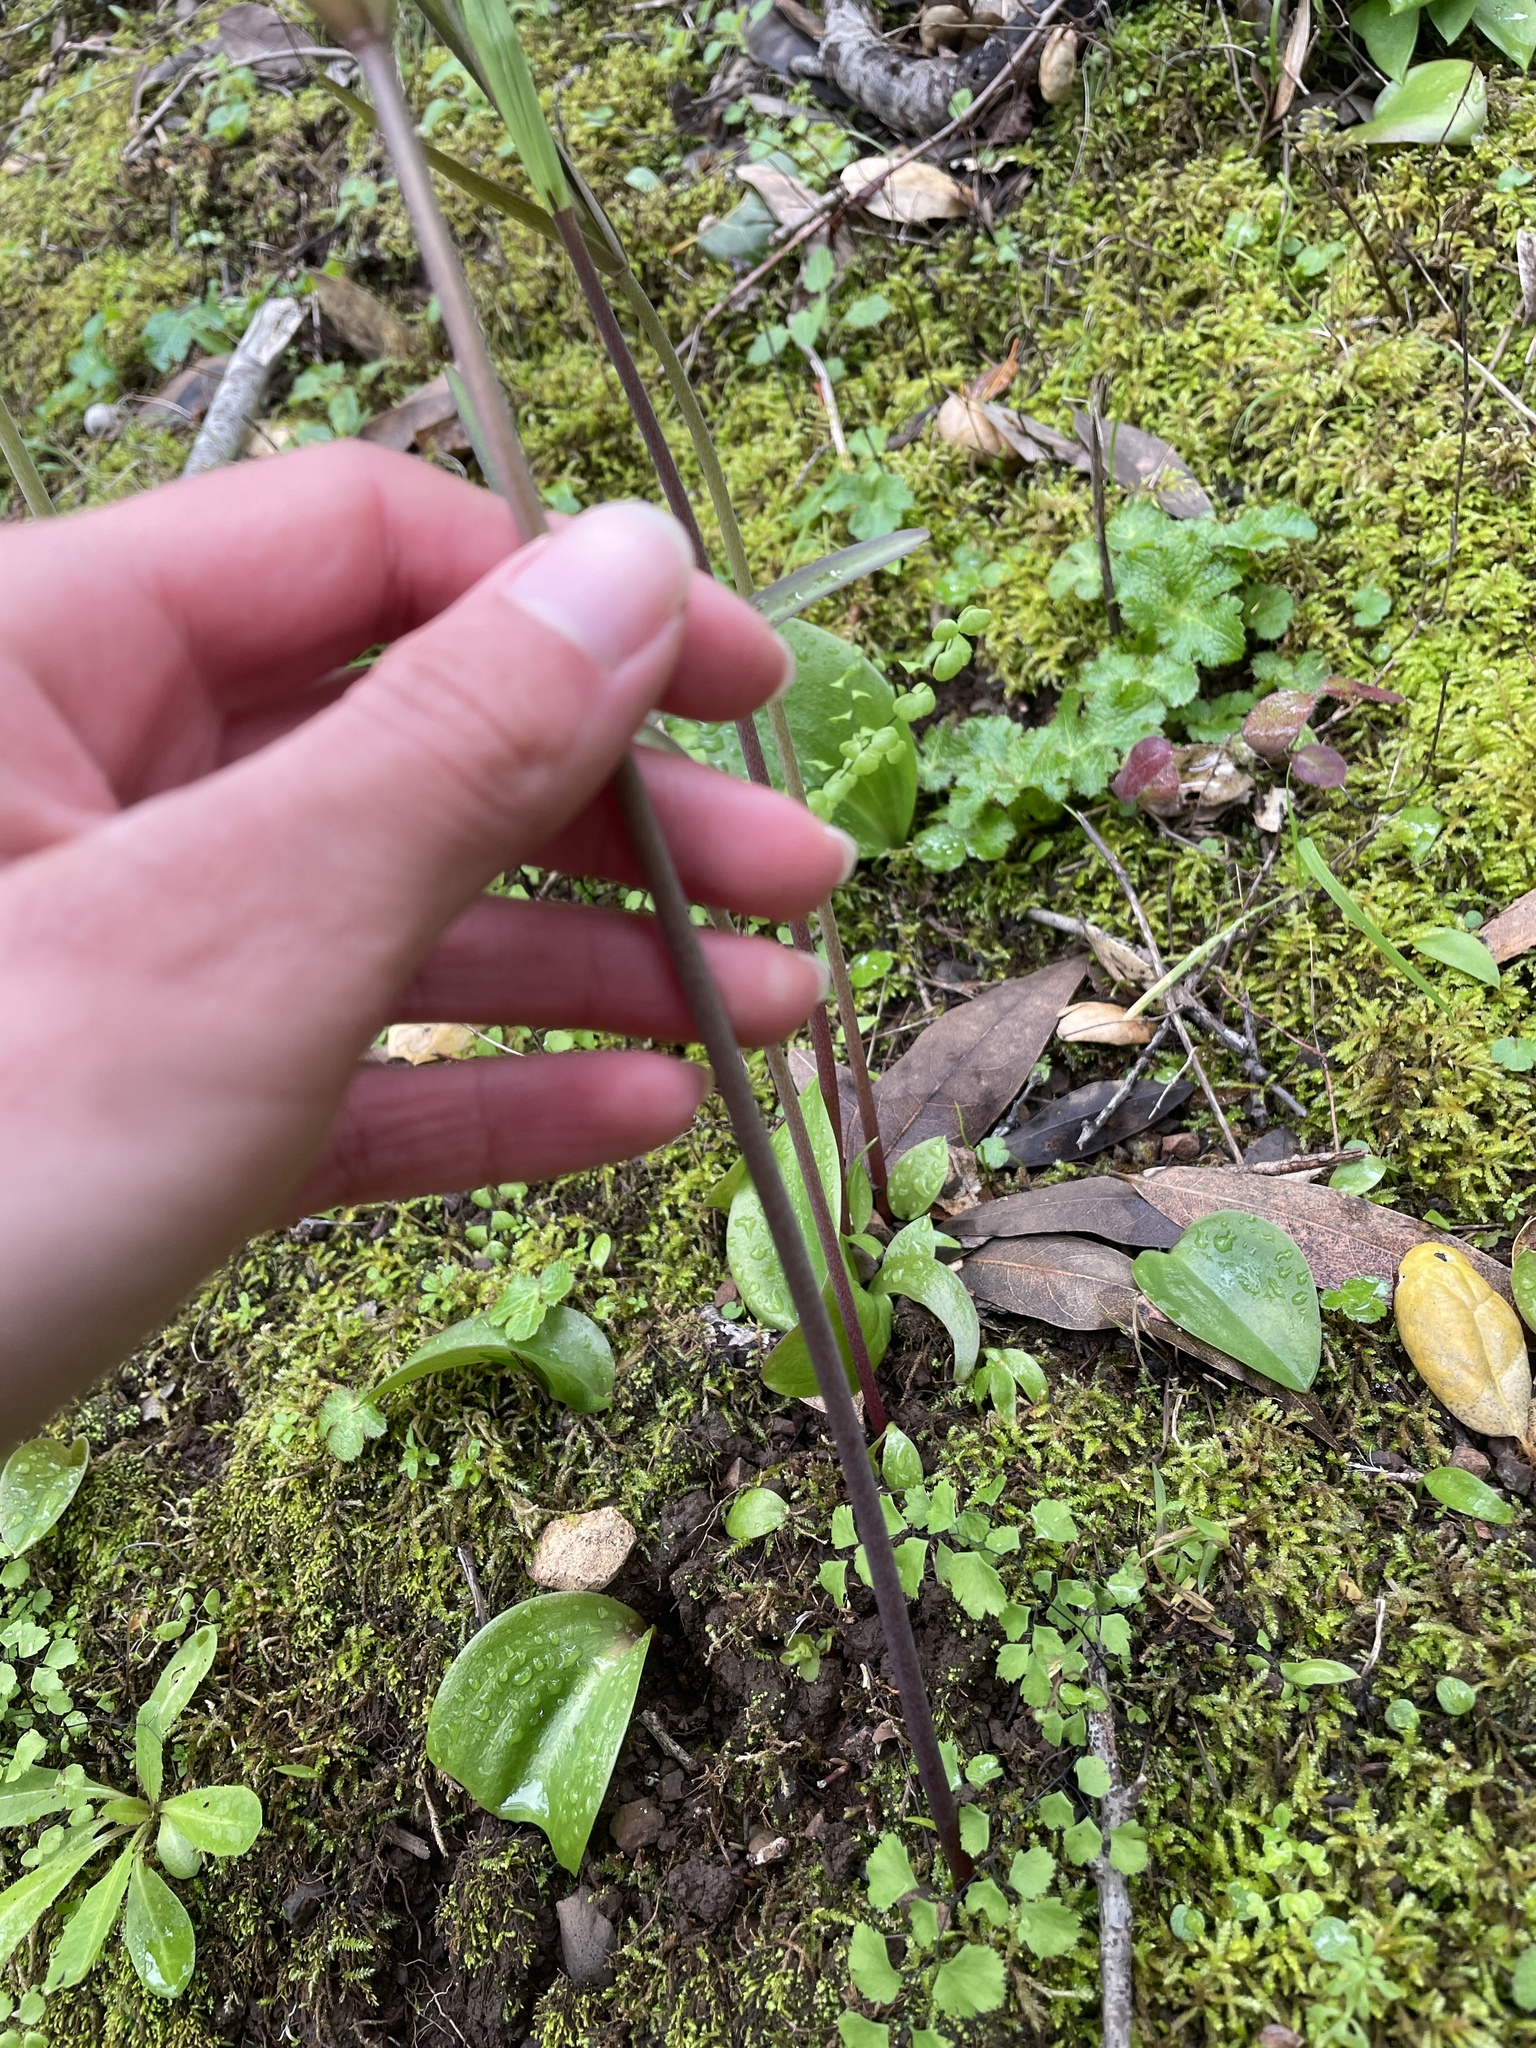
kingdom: Plantae
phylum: Tracheophyta
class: Liliopsida
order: Liliales
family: Liliaceae
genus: Fritillaria
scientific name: Fritillaria affinis
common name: Ojai fritillary
